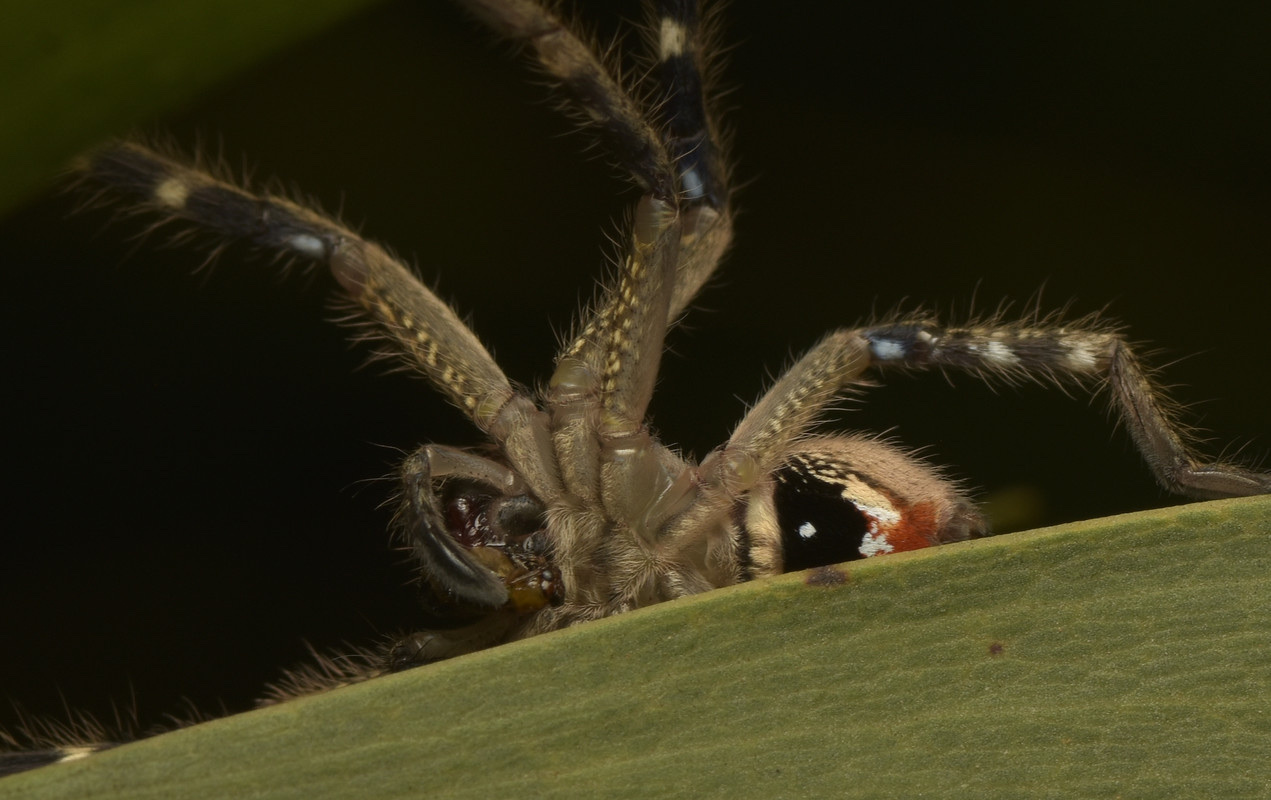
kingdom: Animalia
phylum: Arthropoda
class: Arachnida
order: Araneae
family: Sparassidae
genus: Neosparassus
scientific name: Neosparassus calligaster
